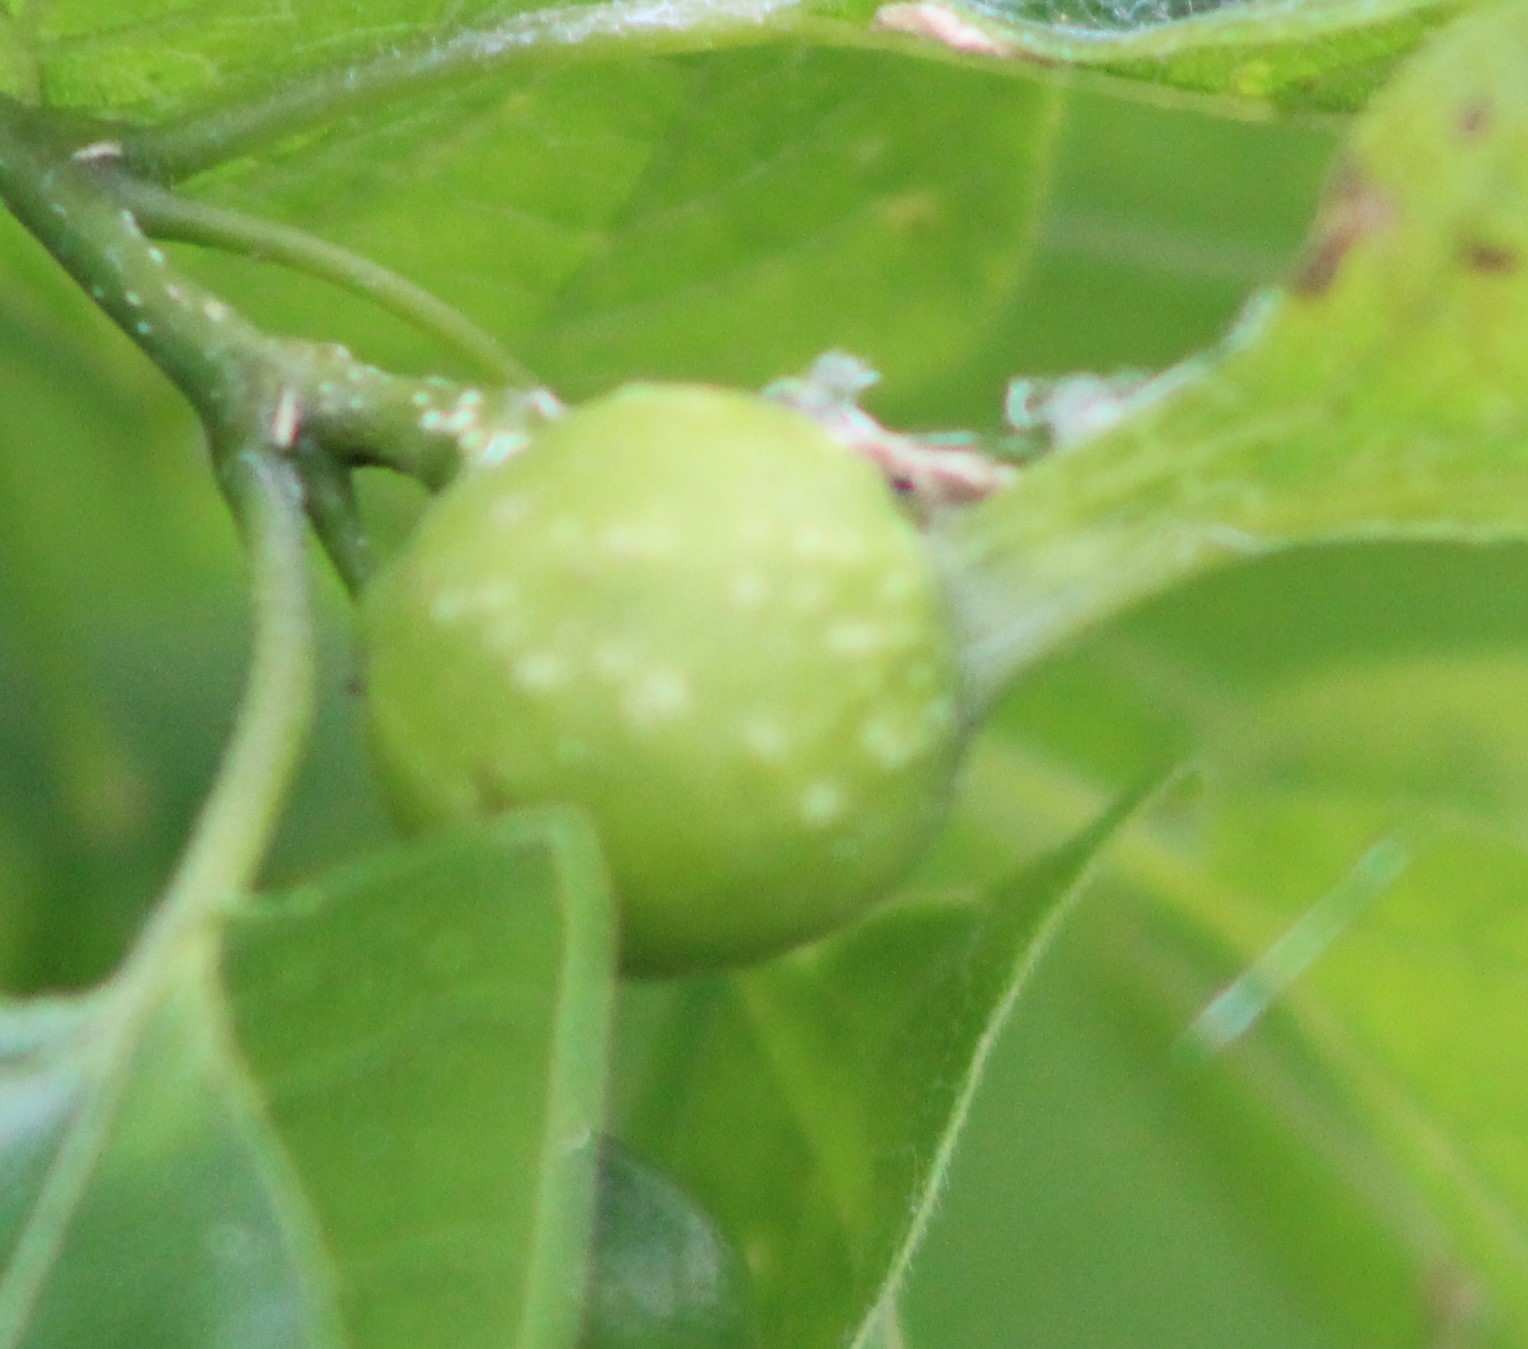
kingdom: Animalia
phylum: Arthropoda
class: Insecta
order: Hemiptera
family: Aphalaridae
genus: Pachypsylla
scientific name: Pachypsylla venusta
